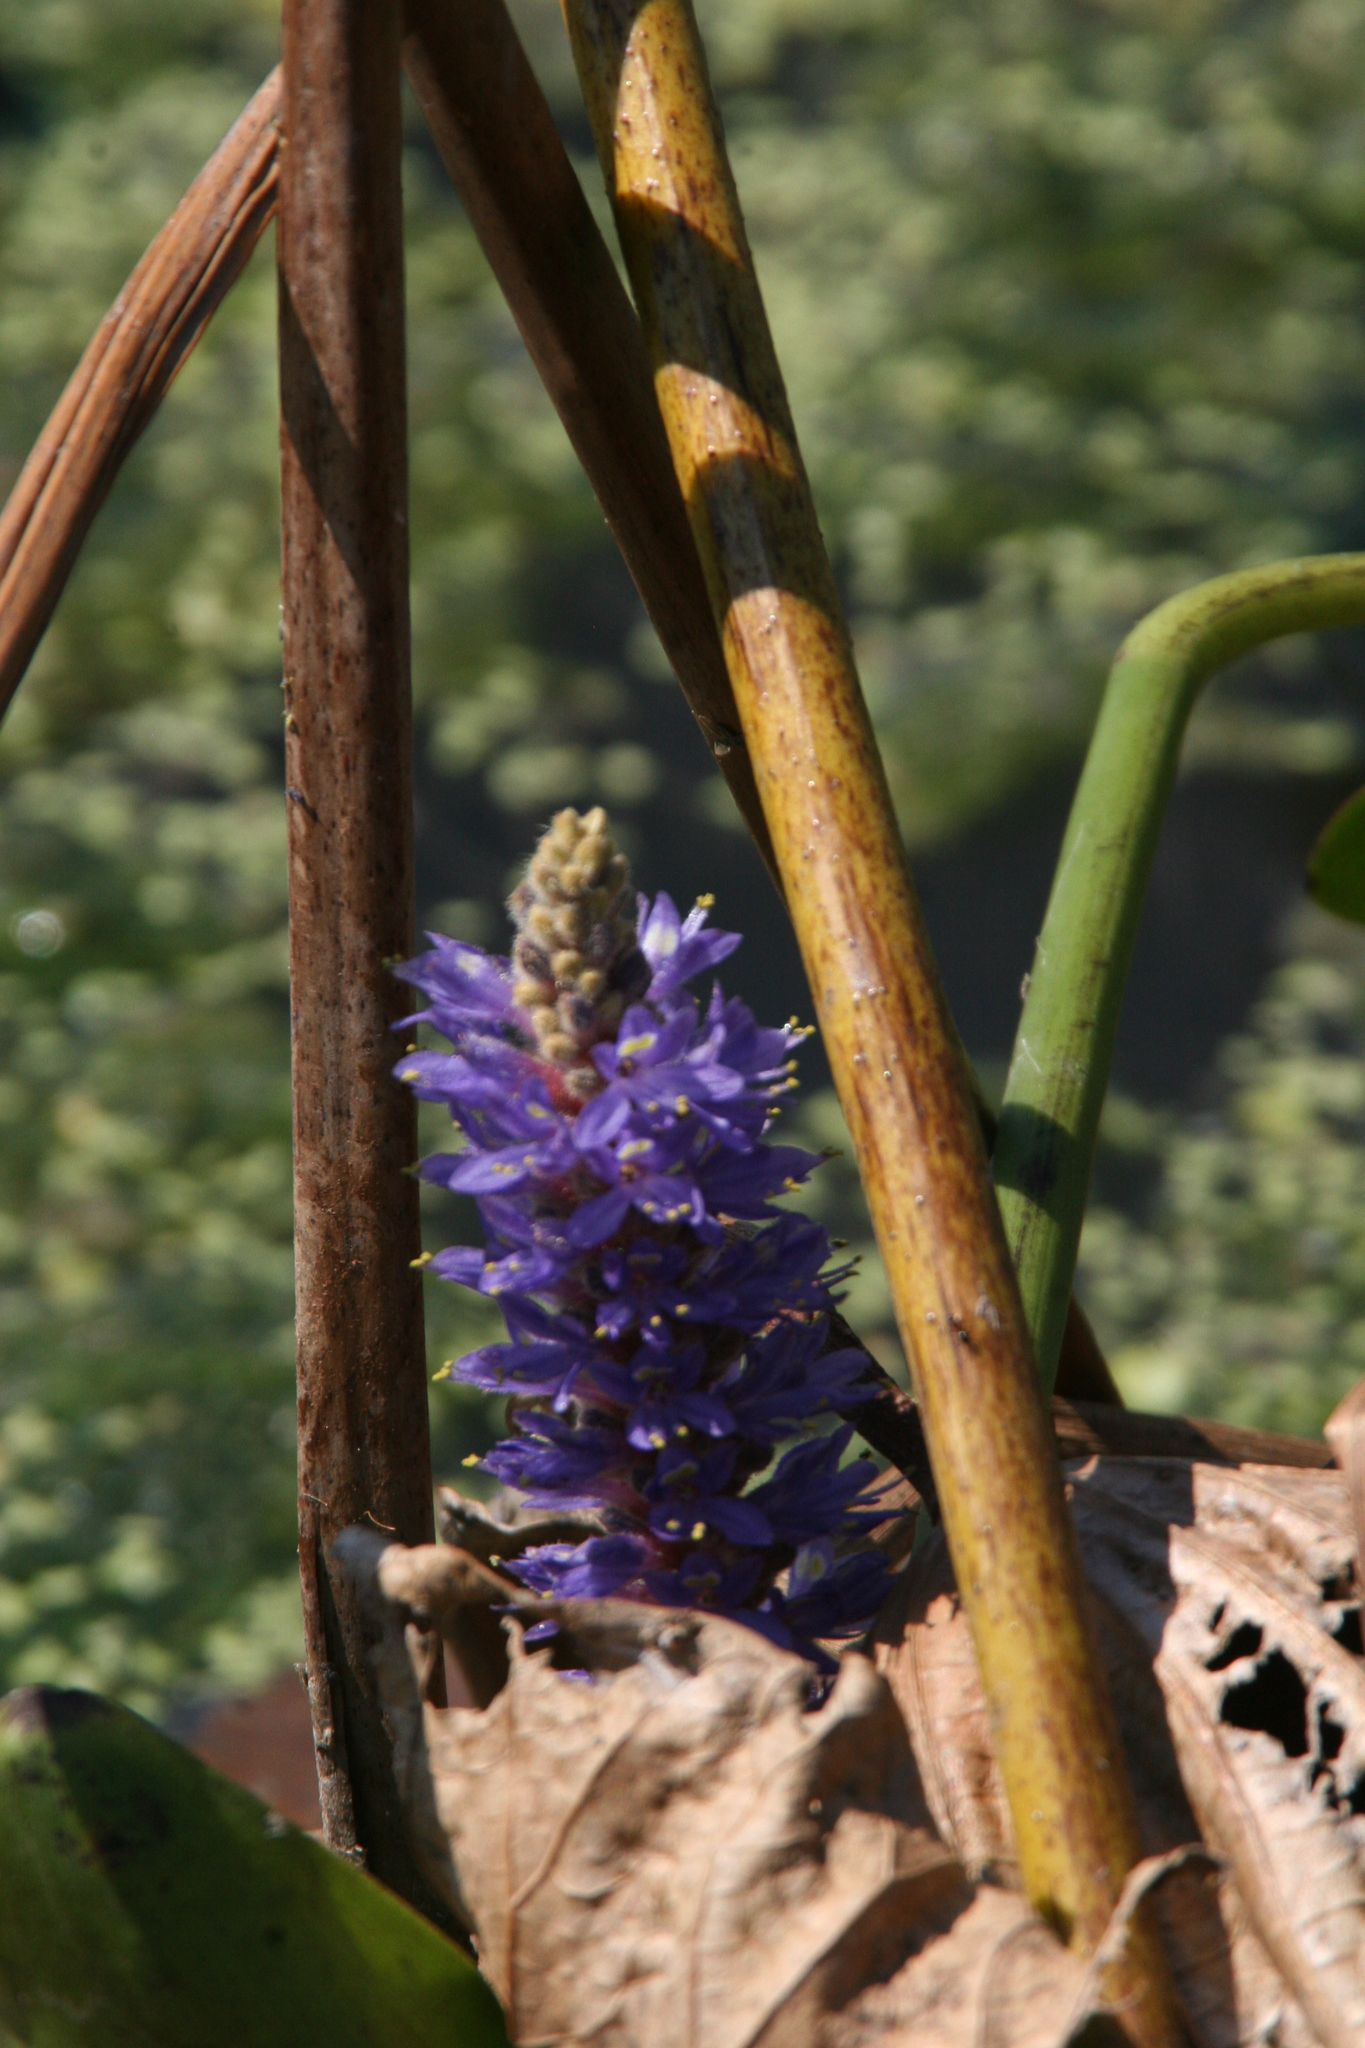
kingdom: Plantae
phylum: Tracheophyta
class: Liliopsida
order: Commelinales
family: Pontederiaceae
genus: Pontederia
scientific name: Pontederia cordata
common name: Pickerelweed
